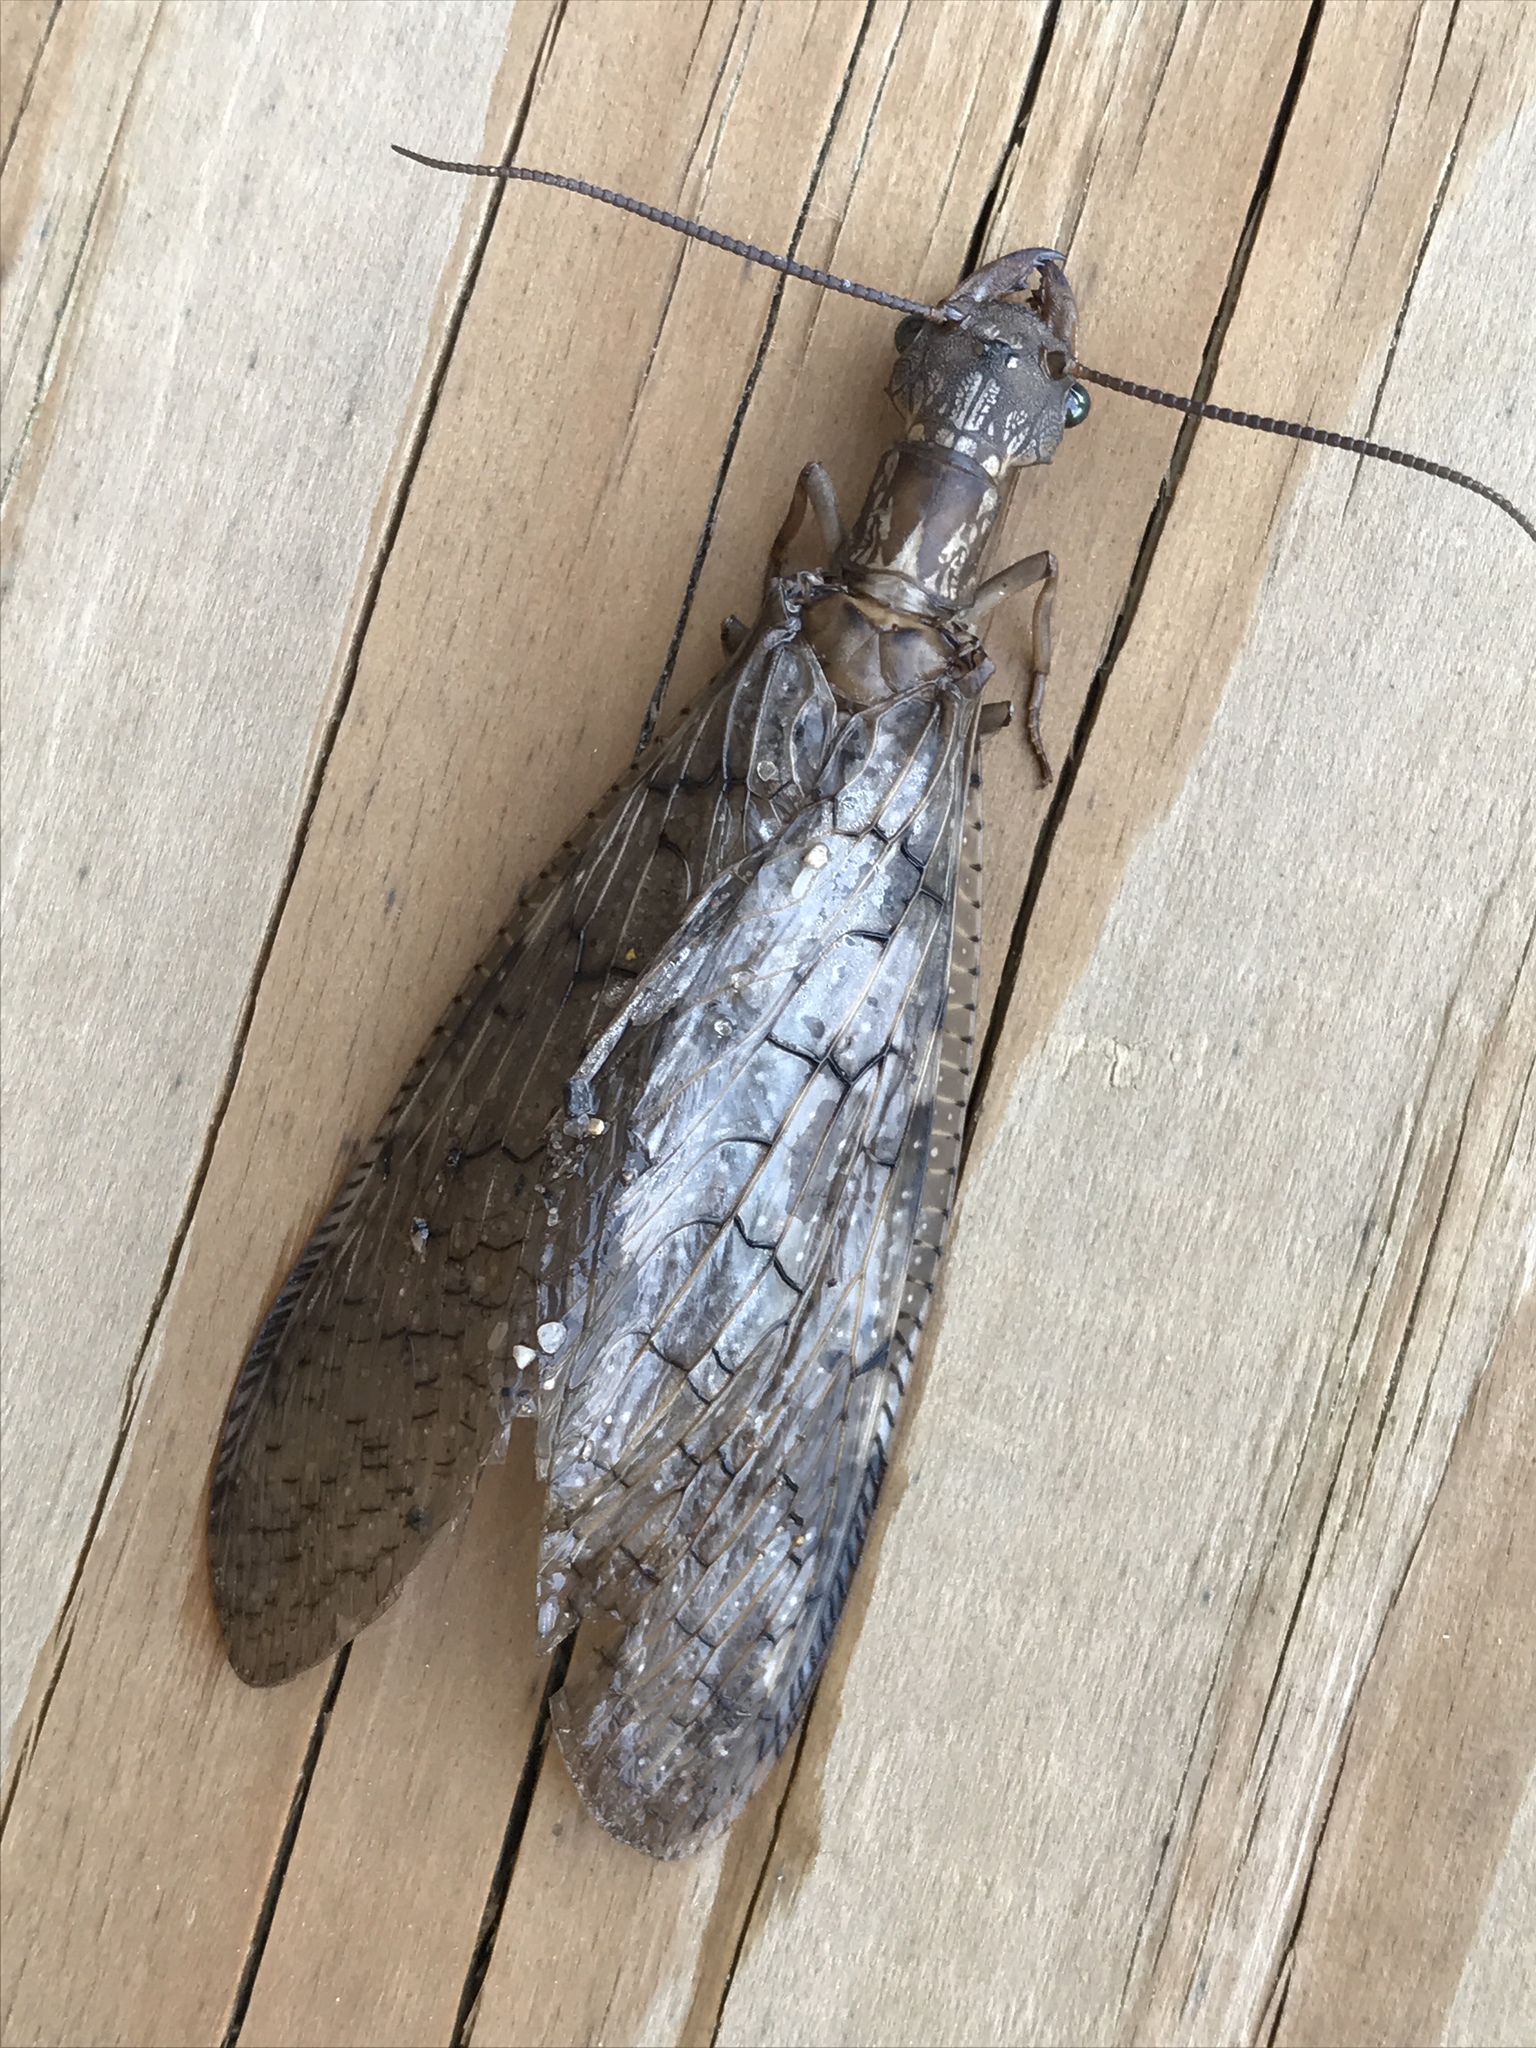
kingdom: Animalia
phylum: Arthropoda
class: Insecta
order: Megaloptera
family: Corydalidae
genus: Corydalus
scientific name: Corydalus cornutus
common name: Dobsonfly
